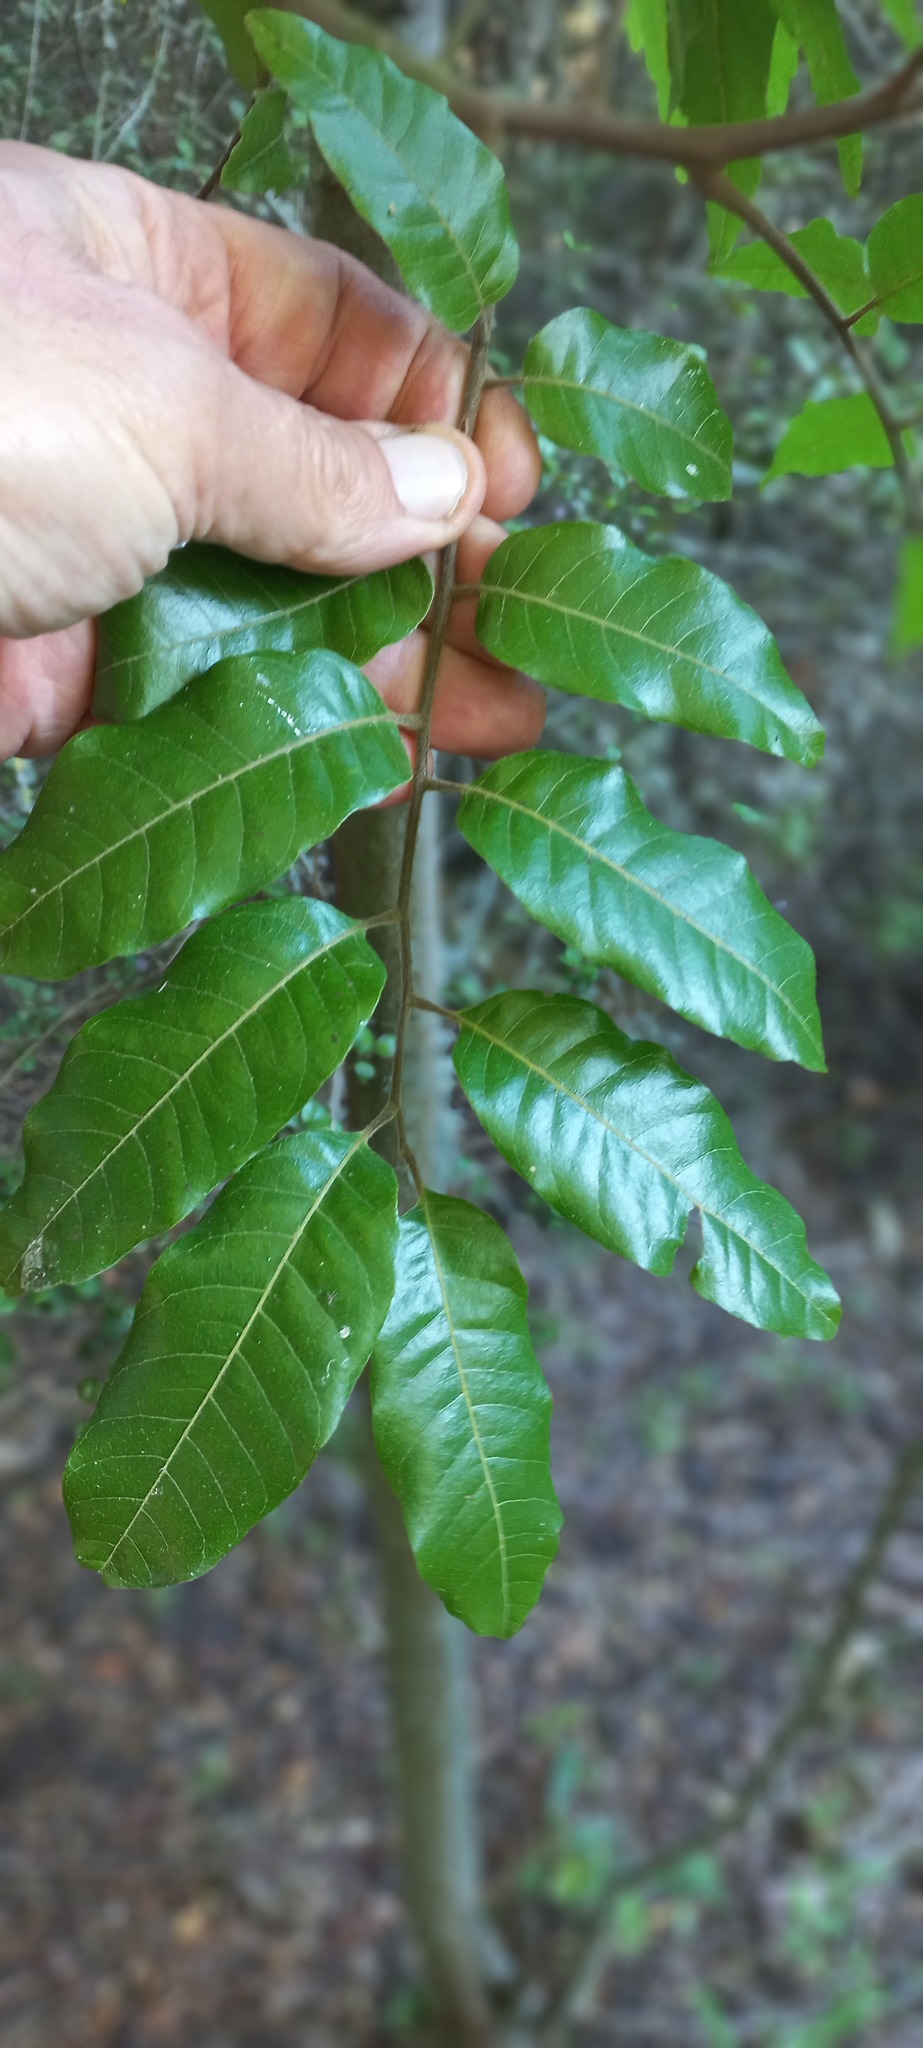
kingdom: Plantae
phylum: Tracheophyta
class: Magnoliopsida
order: Sapindales
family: Sapindaceae
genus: Alectryon
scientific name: Alectryon excelsus
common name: Three kings titoki
